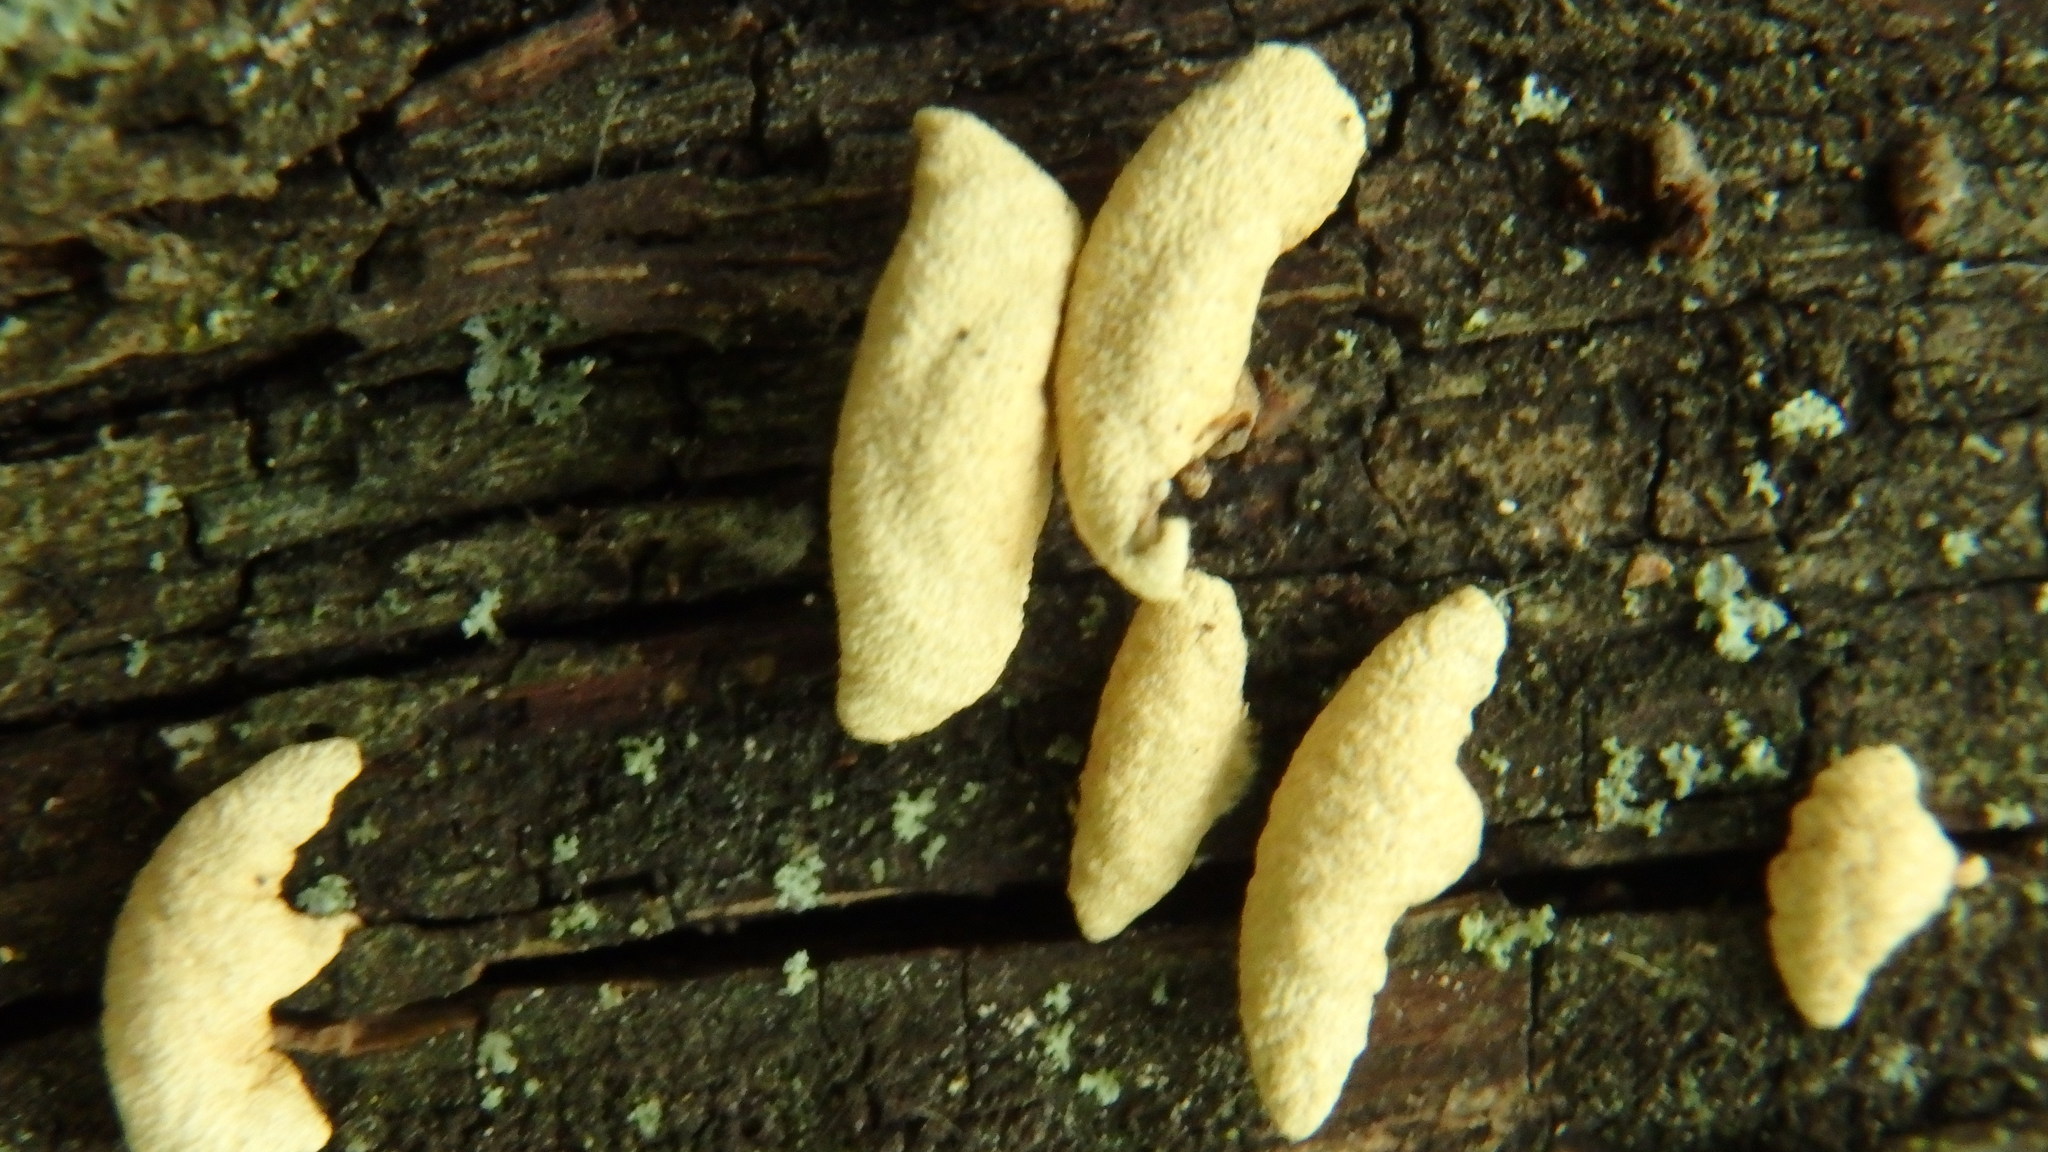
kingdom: Fungi
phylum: Basidiomycota
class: Agaricomycetes
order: Agaricales
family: Mycenaceae
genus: Panellus
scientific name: Panellus stipticus
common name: Bitter oysterling
